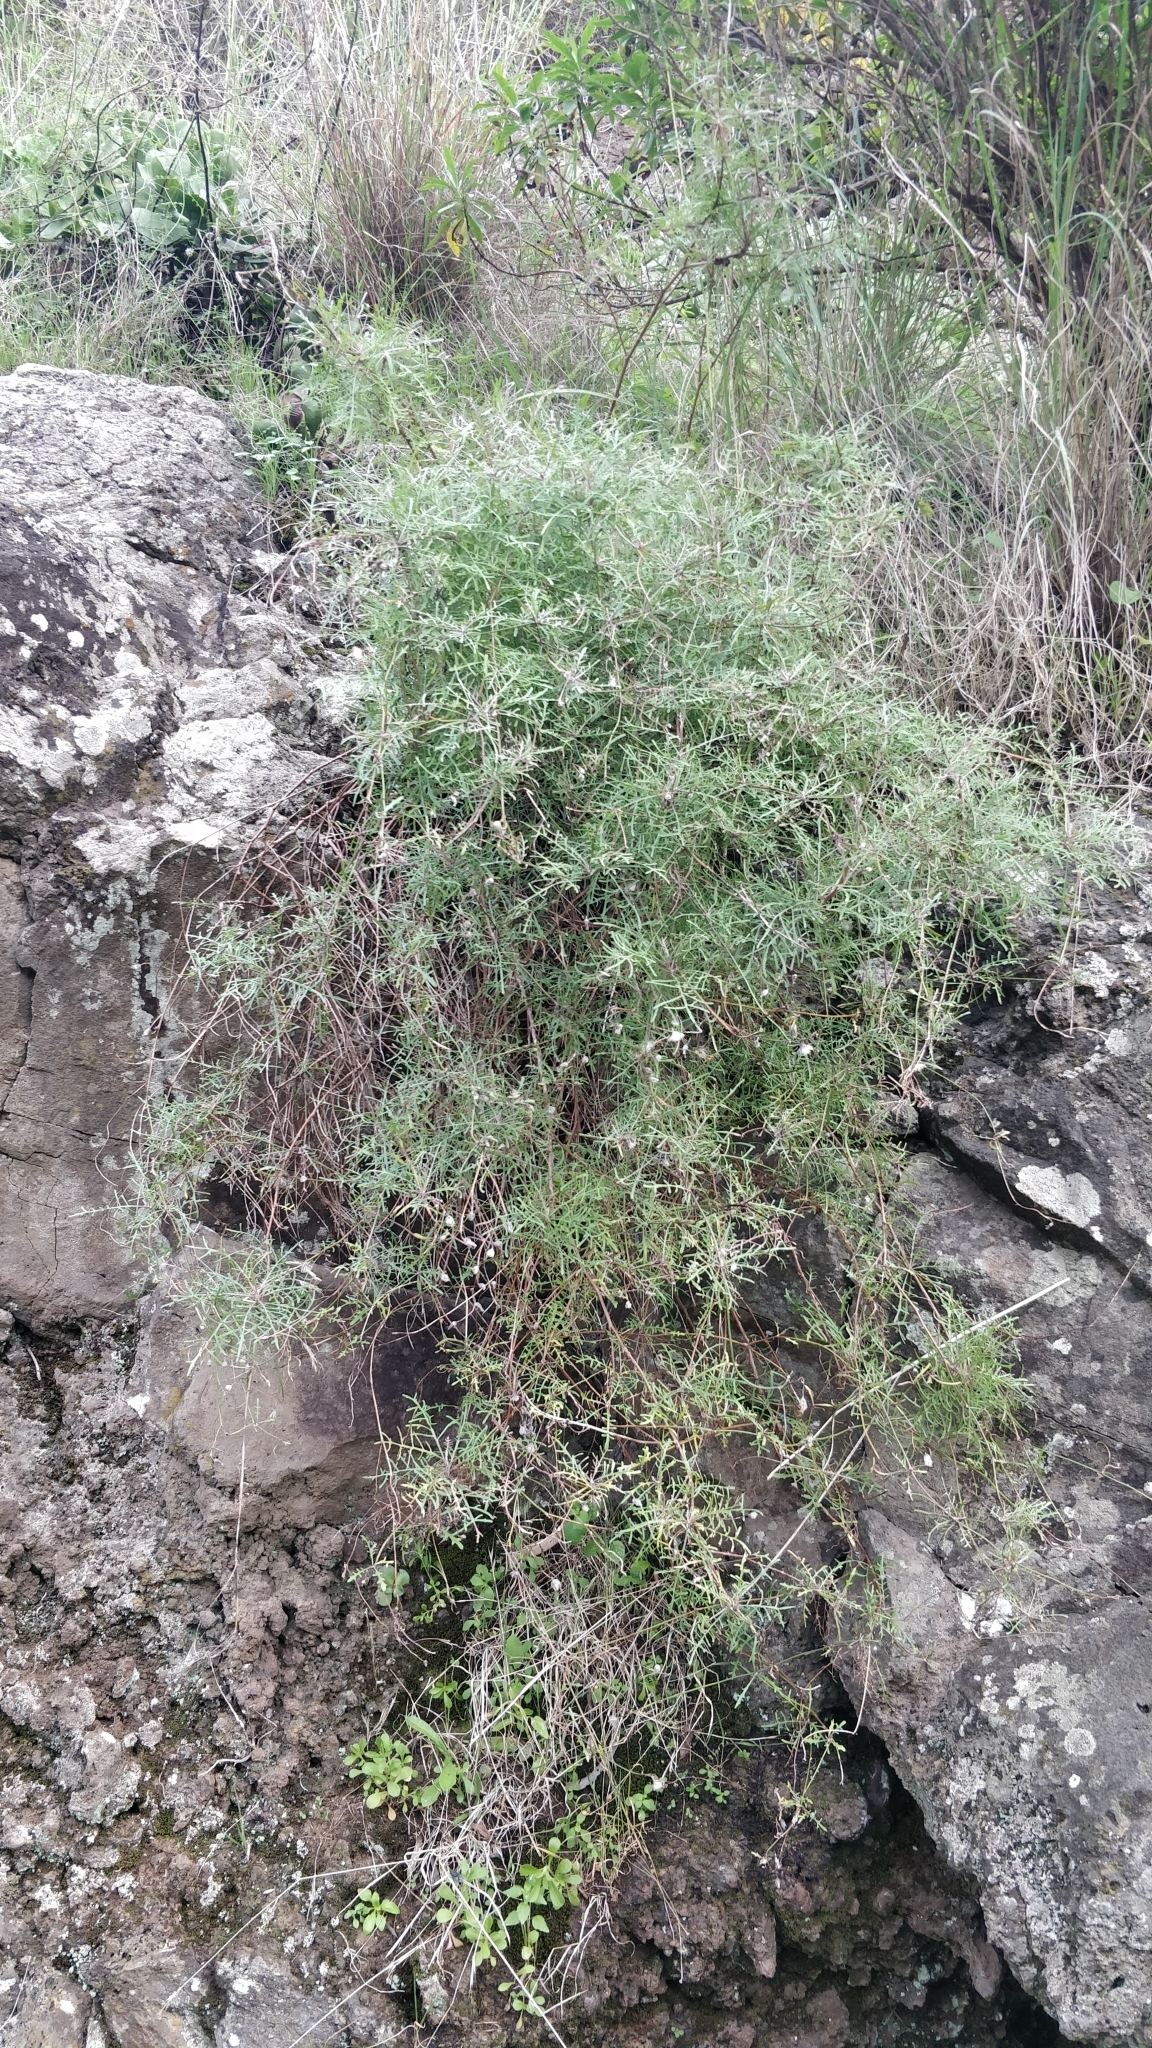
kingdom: Plantae
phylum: Tracheophyta
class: Magnoliopsida
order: Asterales
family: Asteraceae
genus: Tolpis
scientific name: Tolpis succulenta
